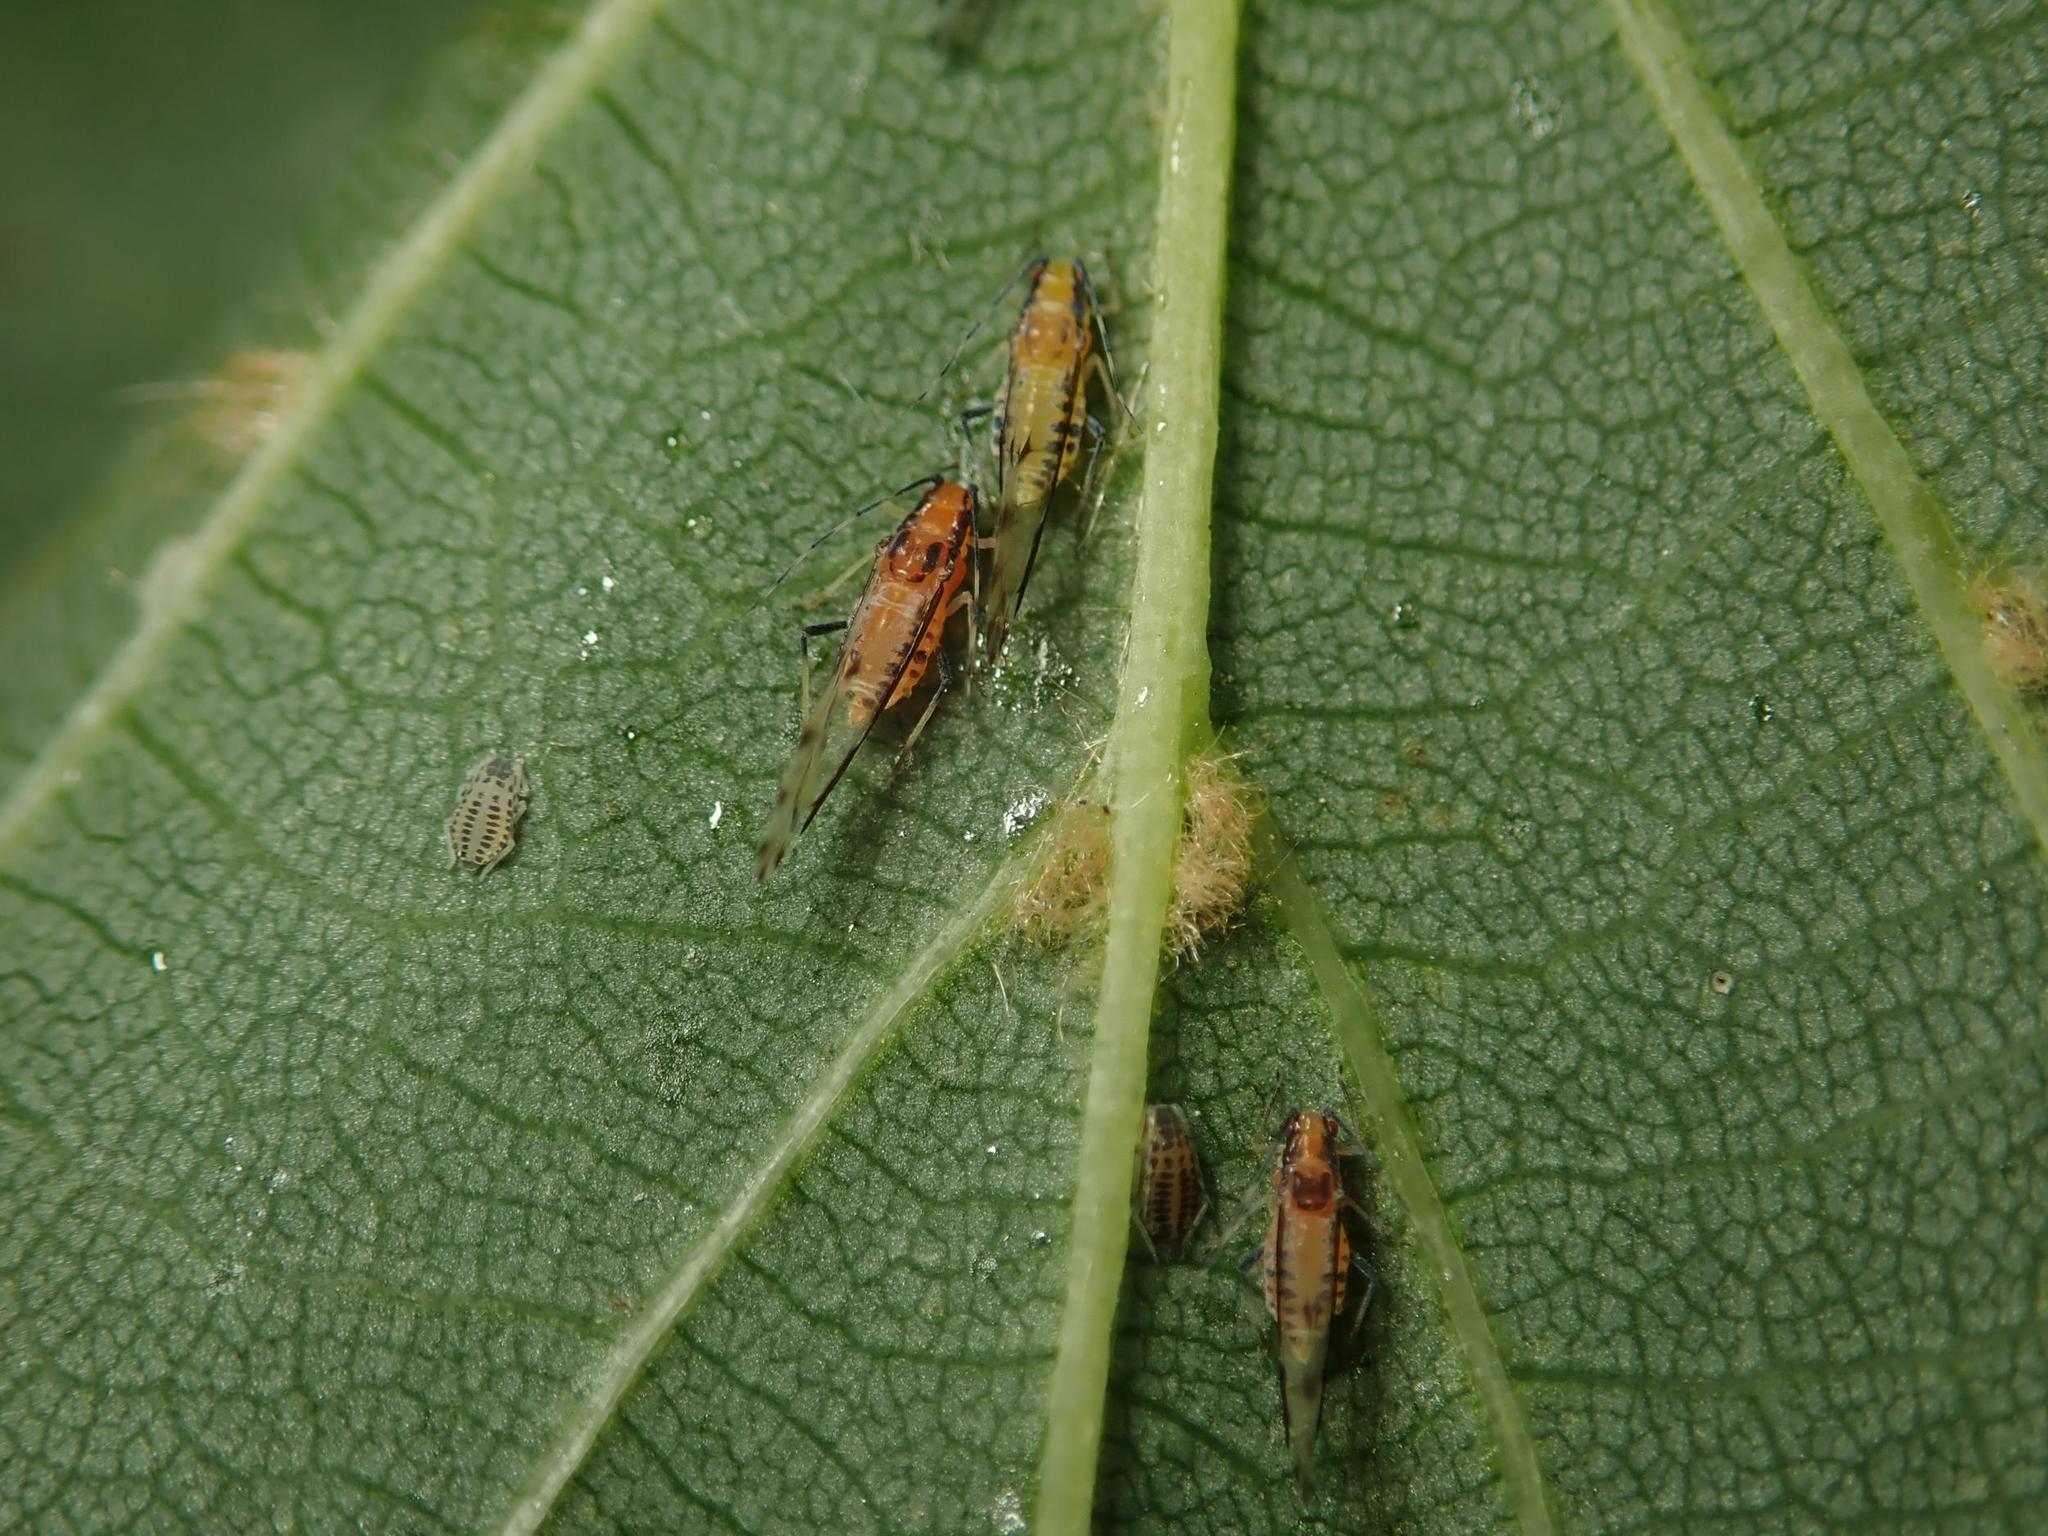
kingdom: Animalia
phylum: Arthropoda
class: Insecta
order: Hemiptera
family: Aphididae
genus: Eucallipterus
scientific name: Eucallipterus tiliae
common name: Aphid
